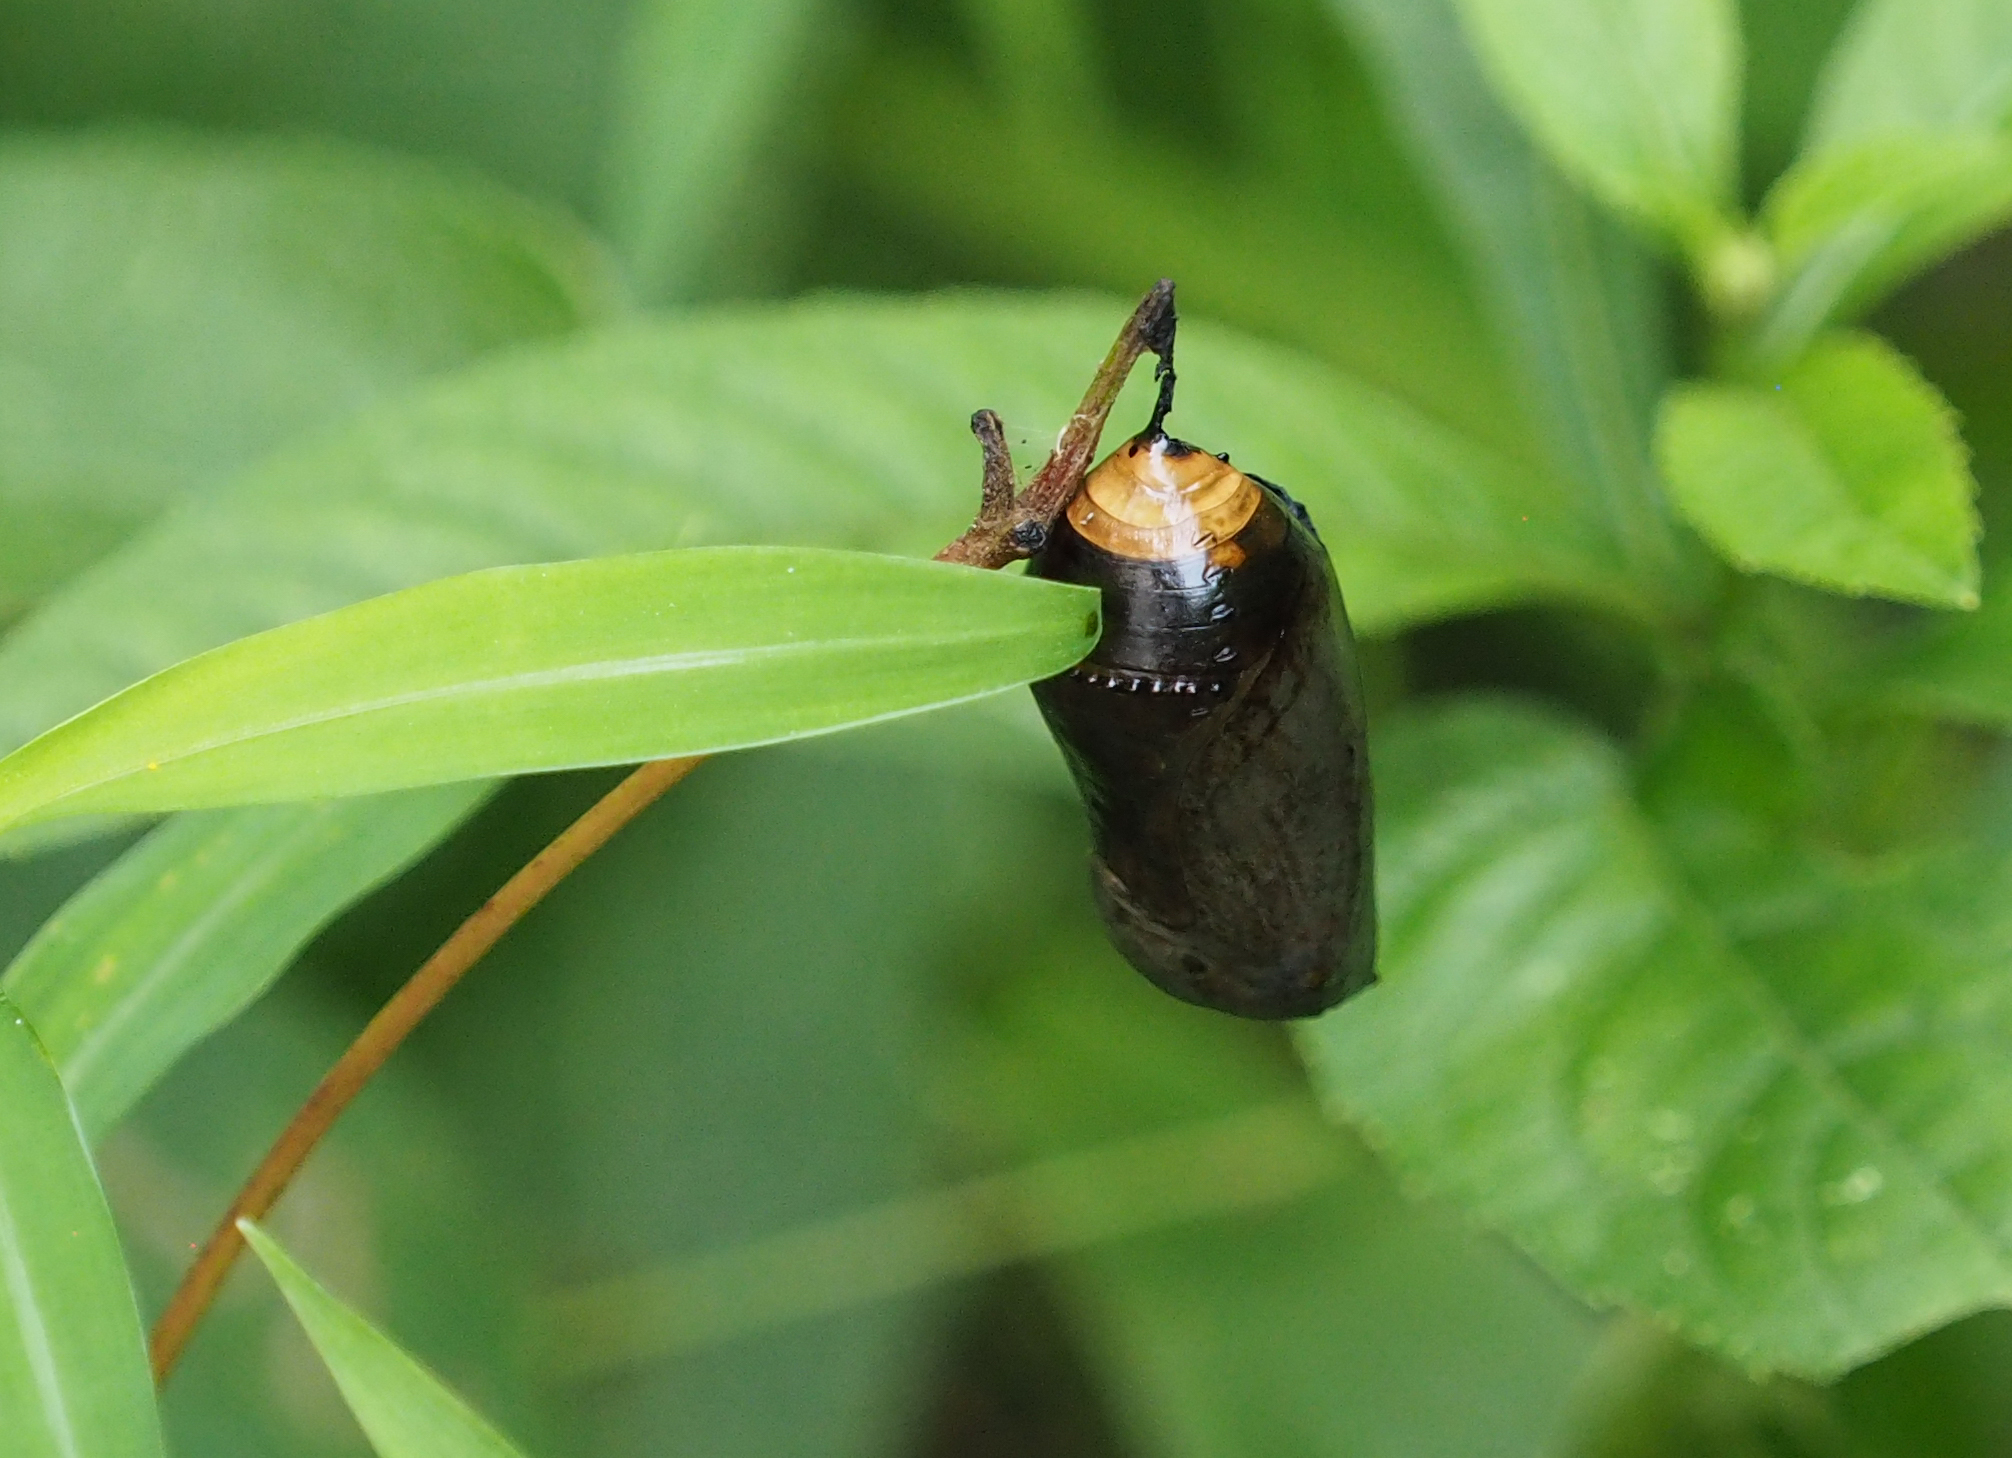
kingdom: Animalia
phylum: Arthropoda
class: Insecta
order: Lepidoptera
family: Nymphalidae
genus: Danaus
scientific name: Danaus plexippus
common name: Monarch
